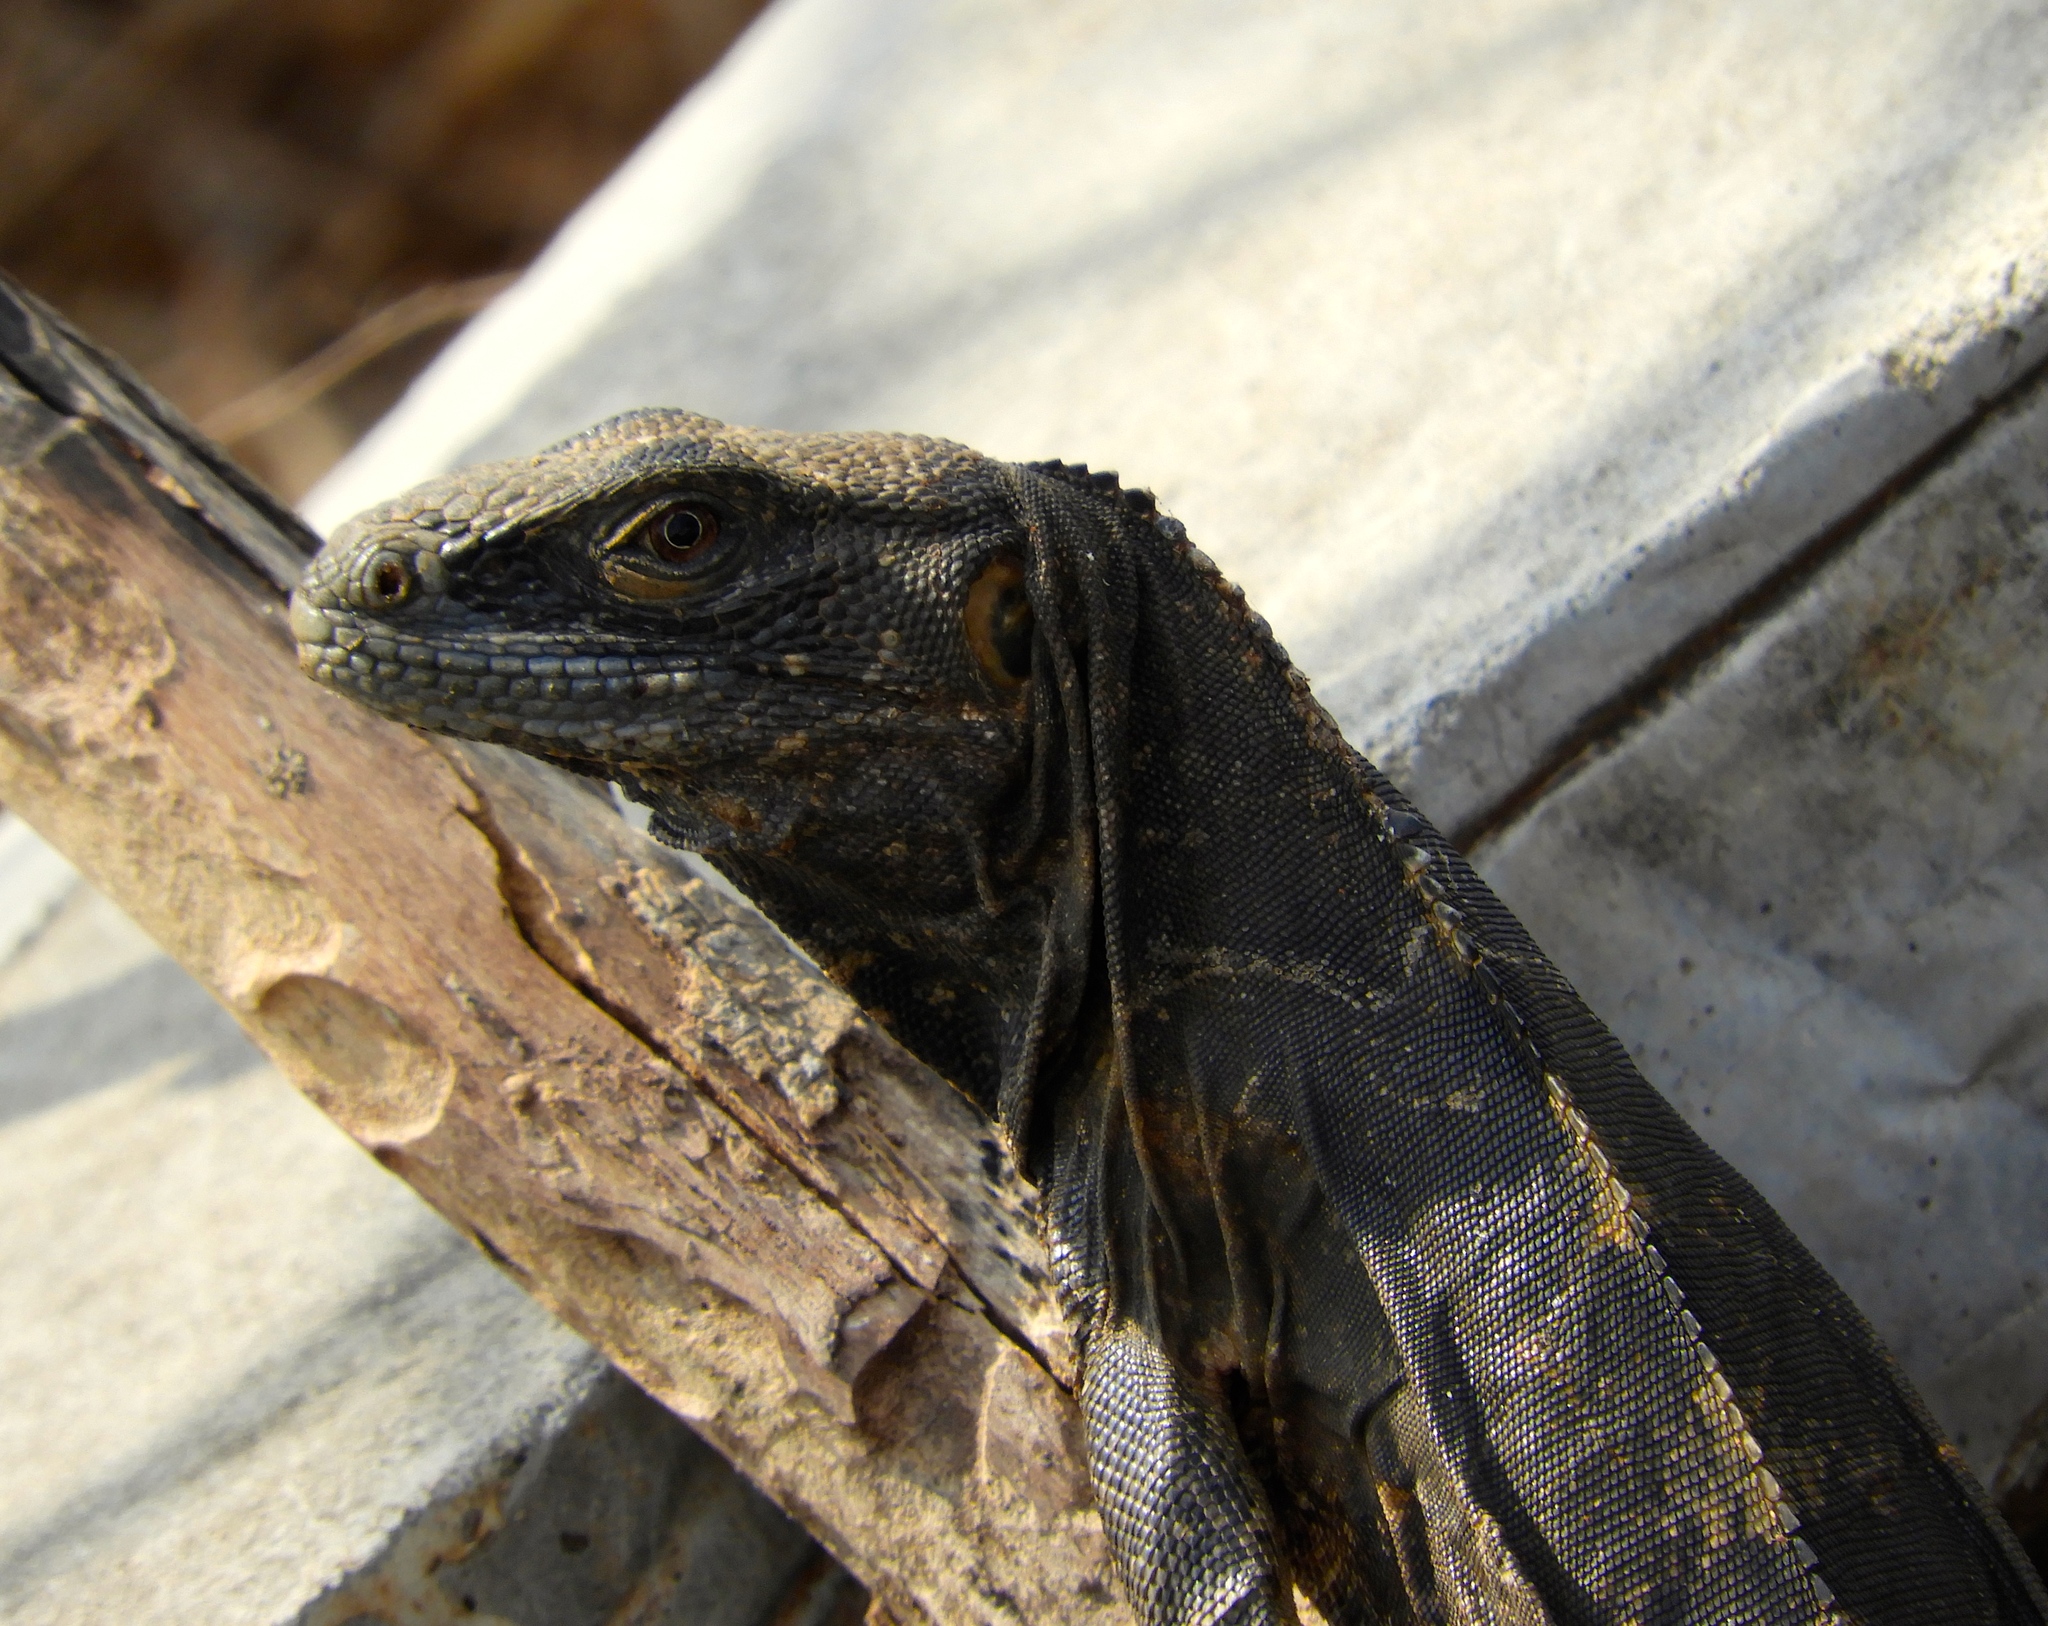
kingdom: Animalia
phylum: Chordata
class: Squamata
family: Iguanidae
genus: Ctenosaura
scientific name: Ctenosaura pectinata
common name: Guerreran spiny-tailed iguana
